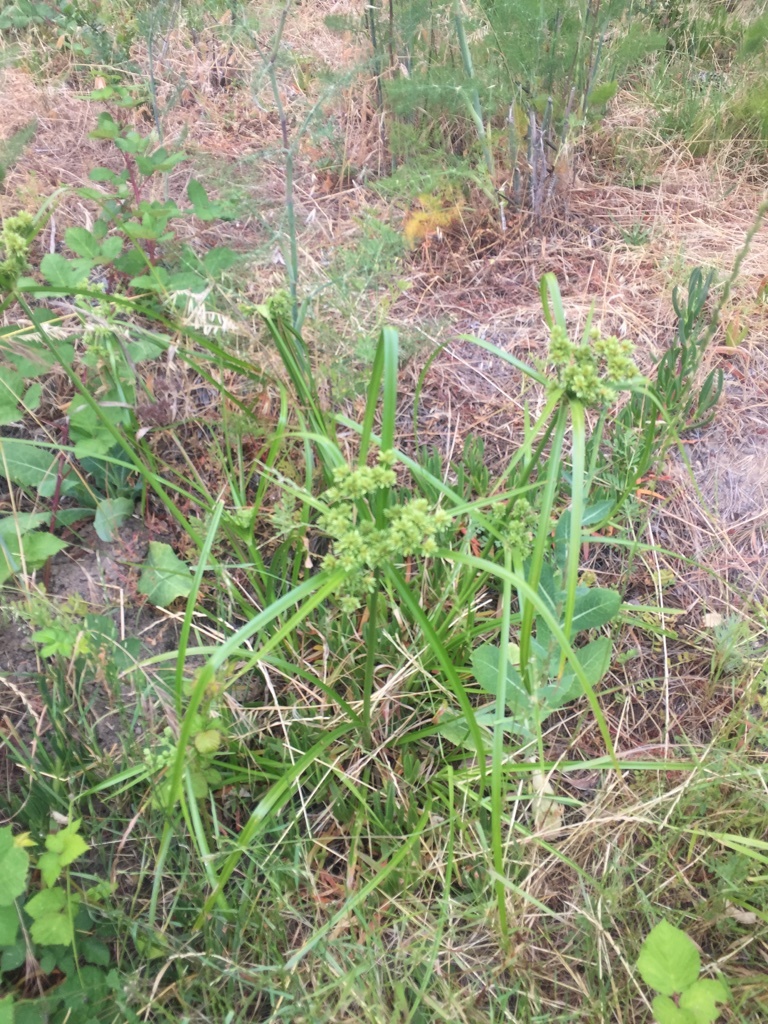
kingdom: Plantae
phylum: Tracheophyta
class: Liliopsida
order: Poales
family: Cyperaceae
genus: Cyperus
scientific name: Cyperus eragrostis
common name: Tall flatsedge
